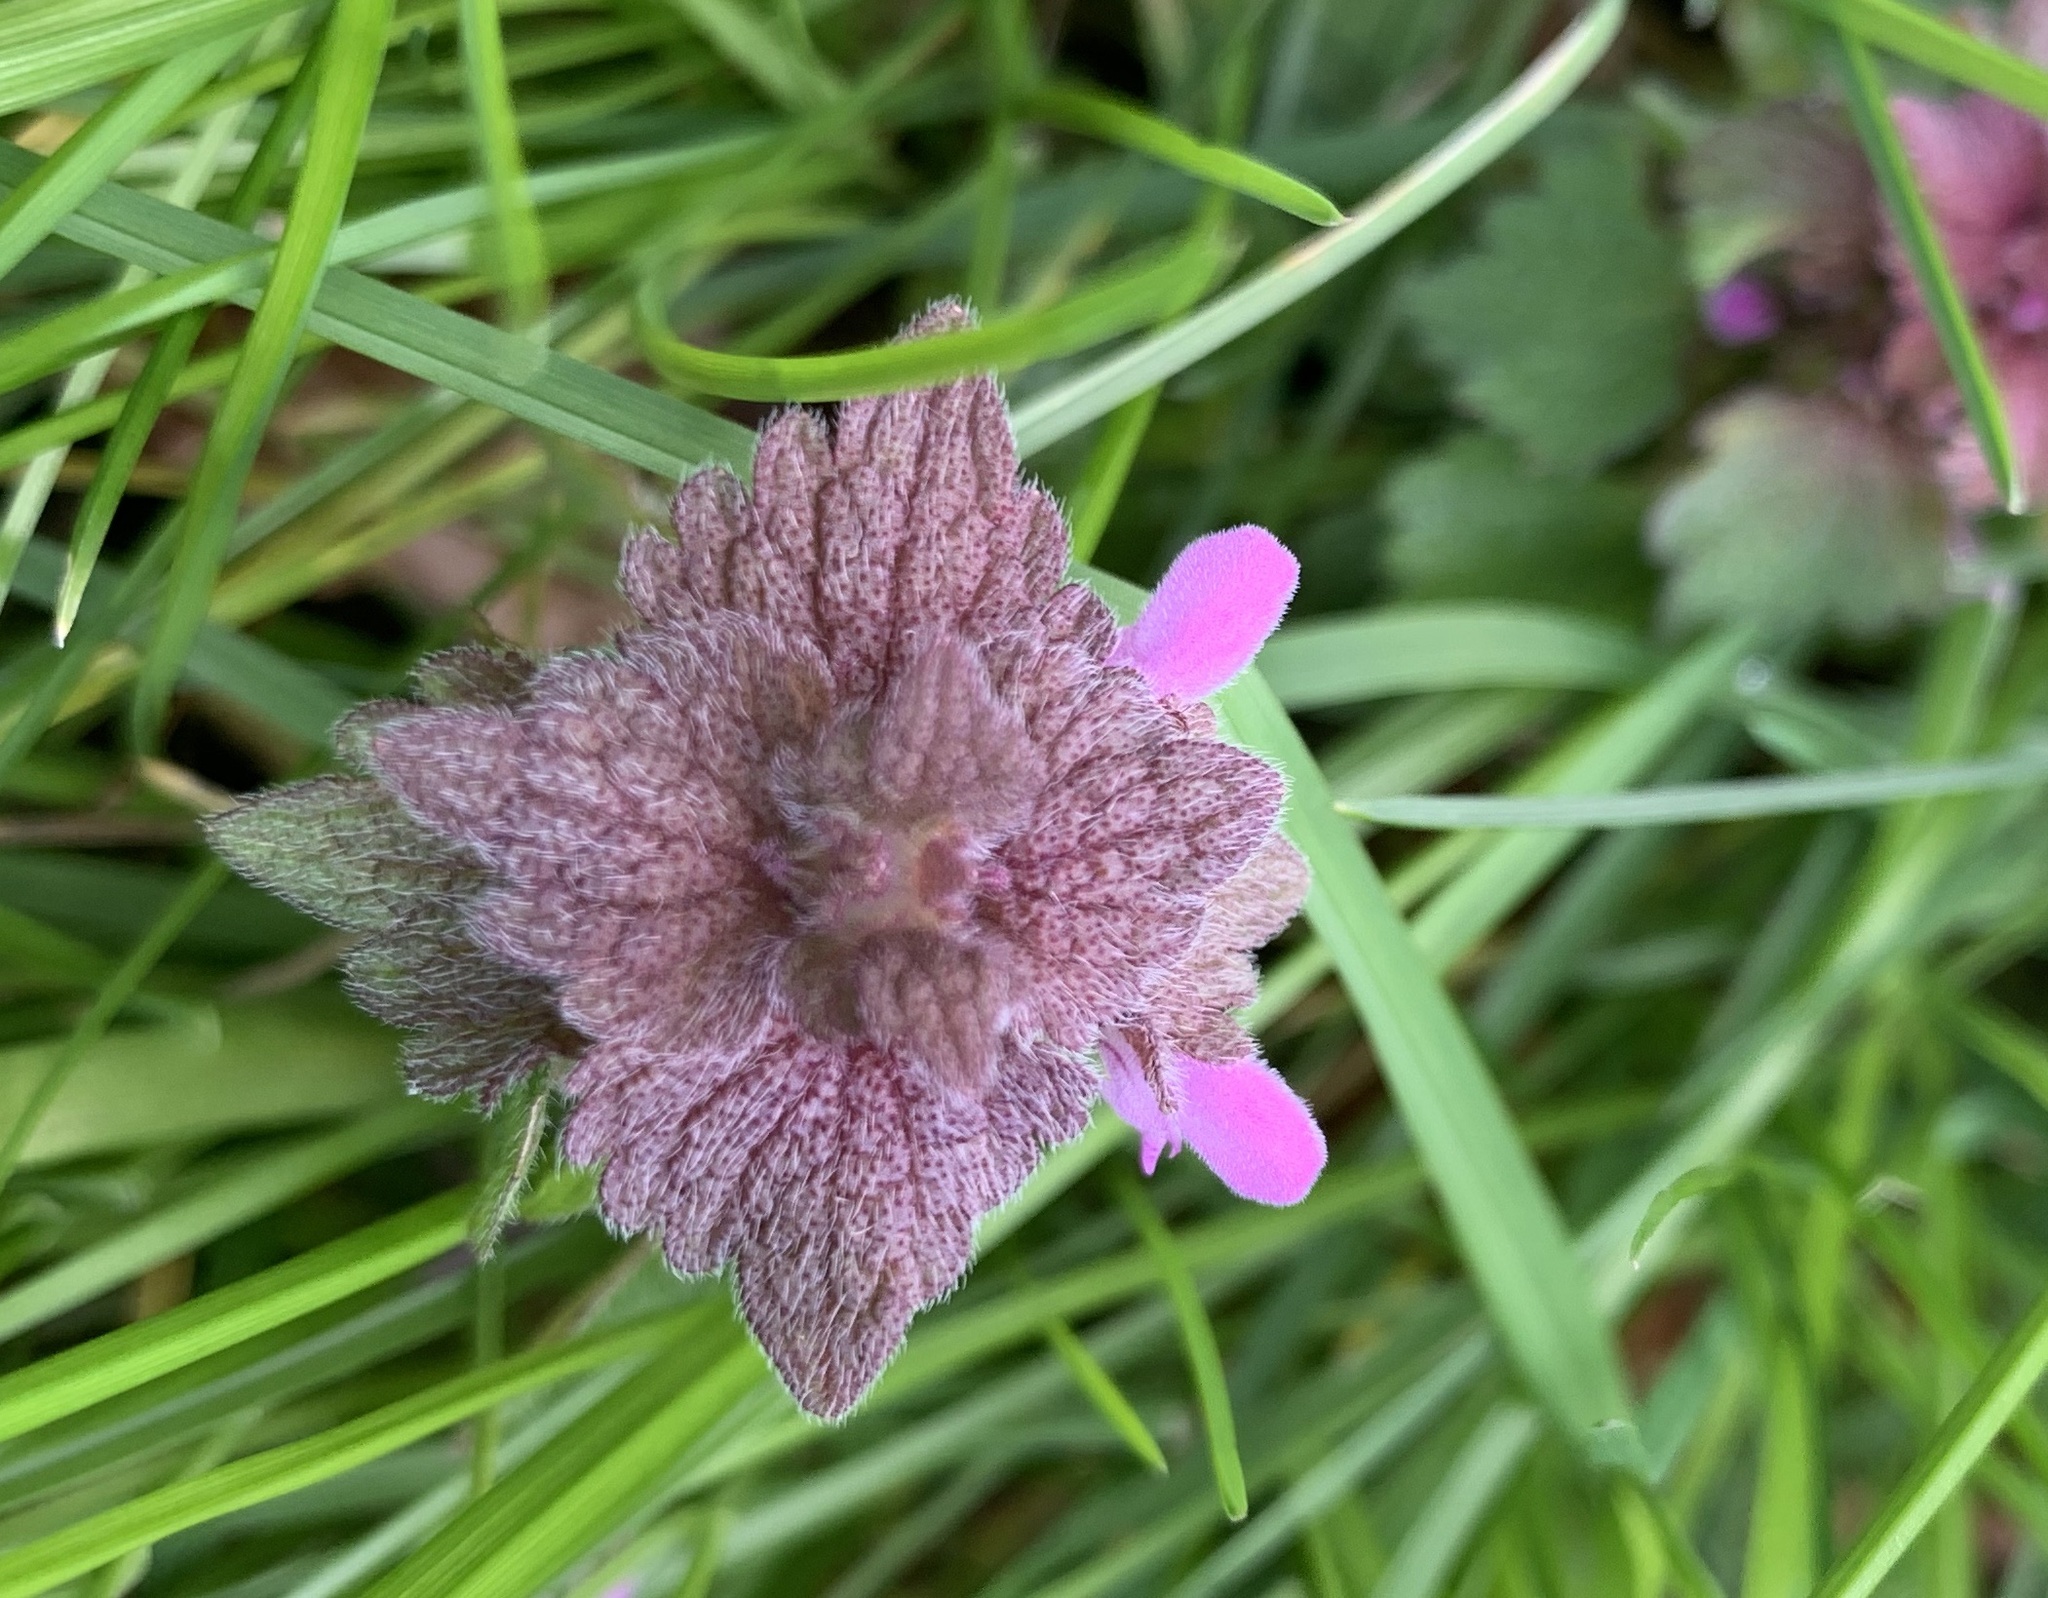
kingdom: Plantae
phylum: Tracheophyta
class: Magnoliopsida
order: Lamiales
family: Lamiaceae
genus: Lamium
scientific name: Lamium purpureum
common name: Red dead-nettle
